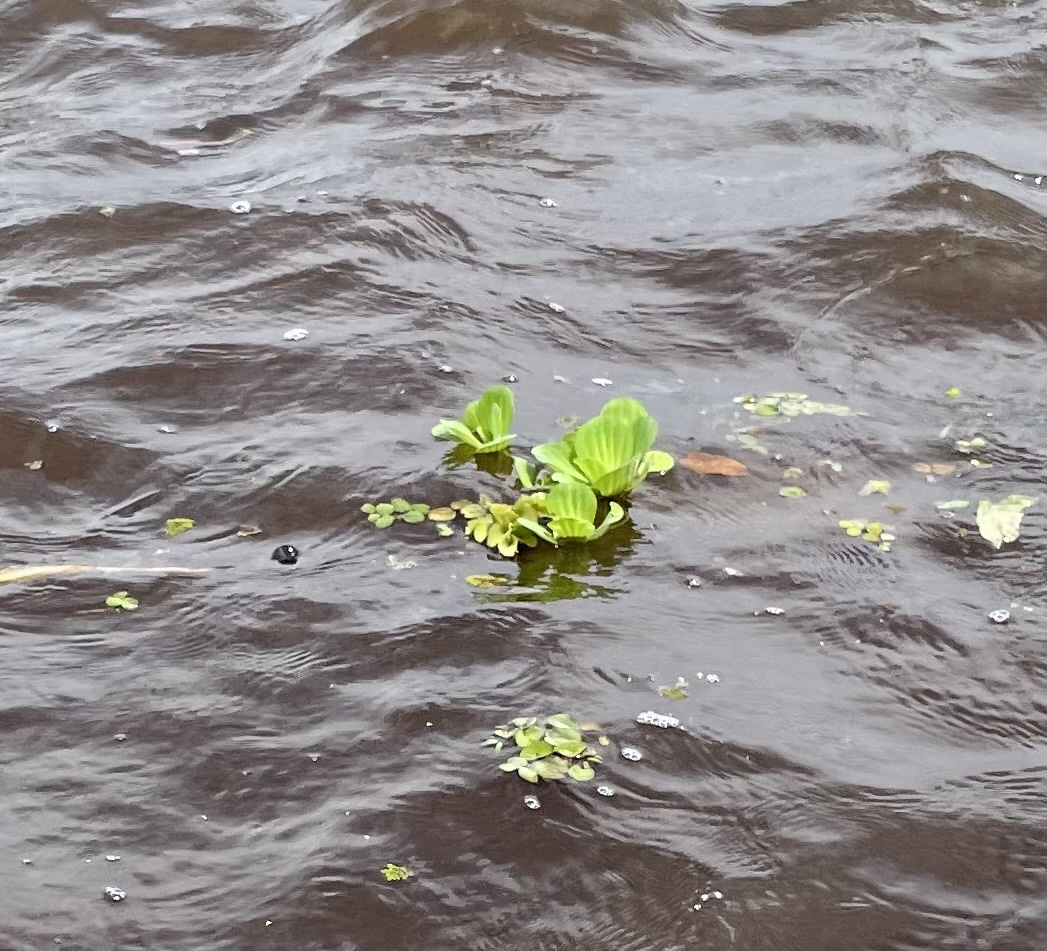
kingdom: Plantae
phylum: Tracheophyta
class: Liliopsida
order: Alismatales
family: Araceae
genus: Pistia
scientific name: Pistia stratiotes
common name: Water lettuce
